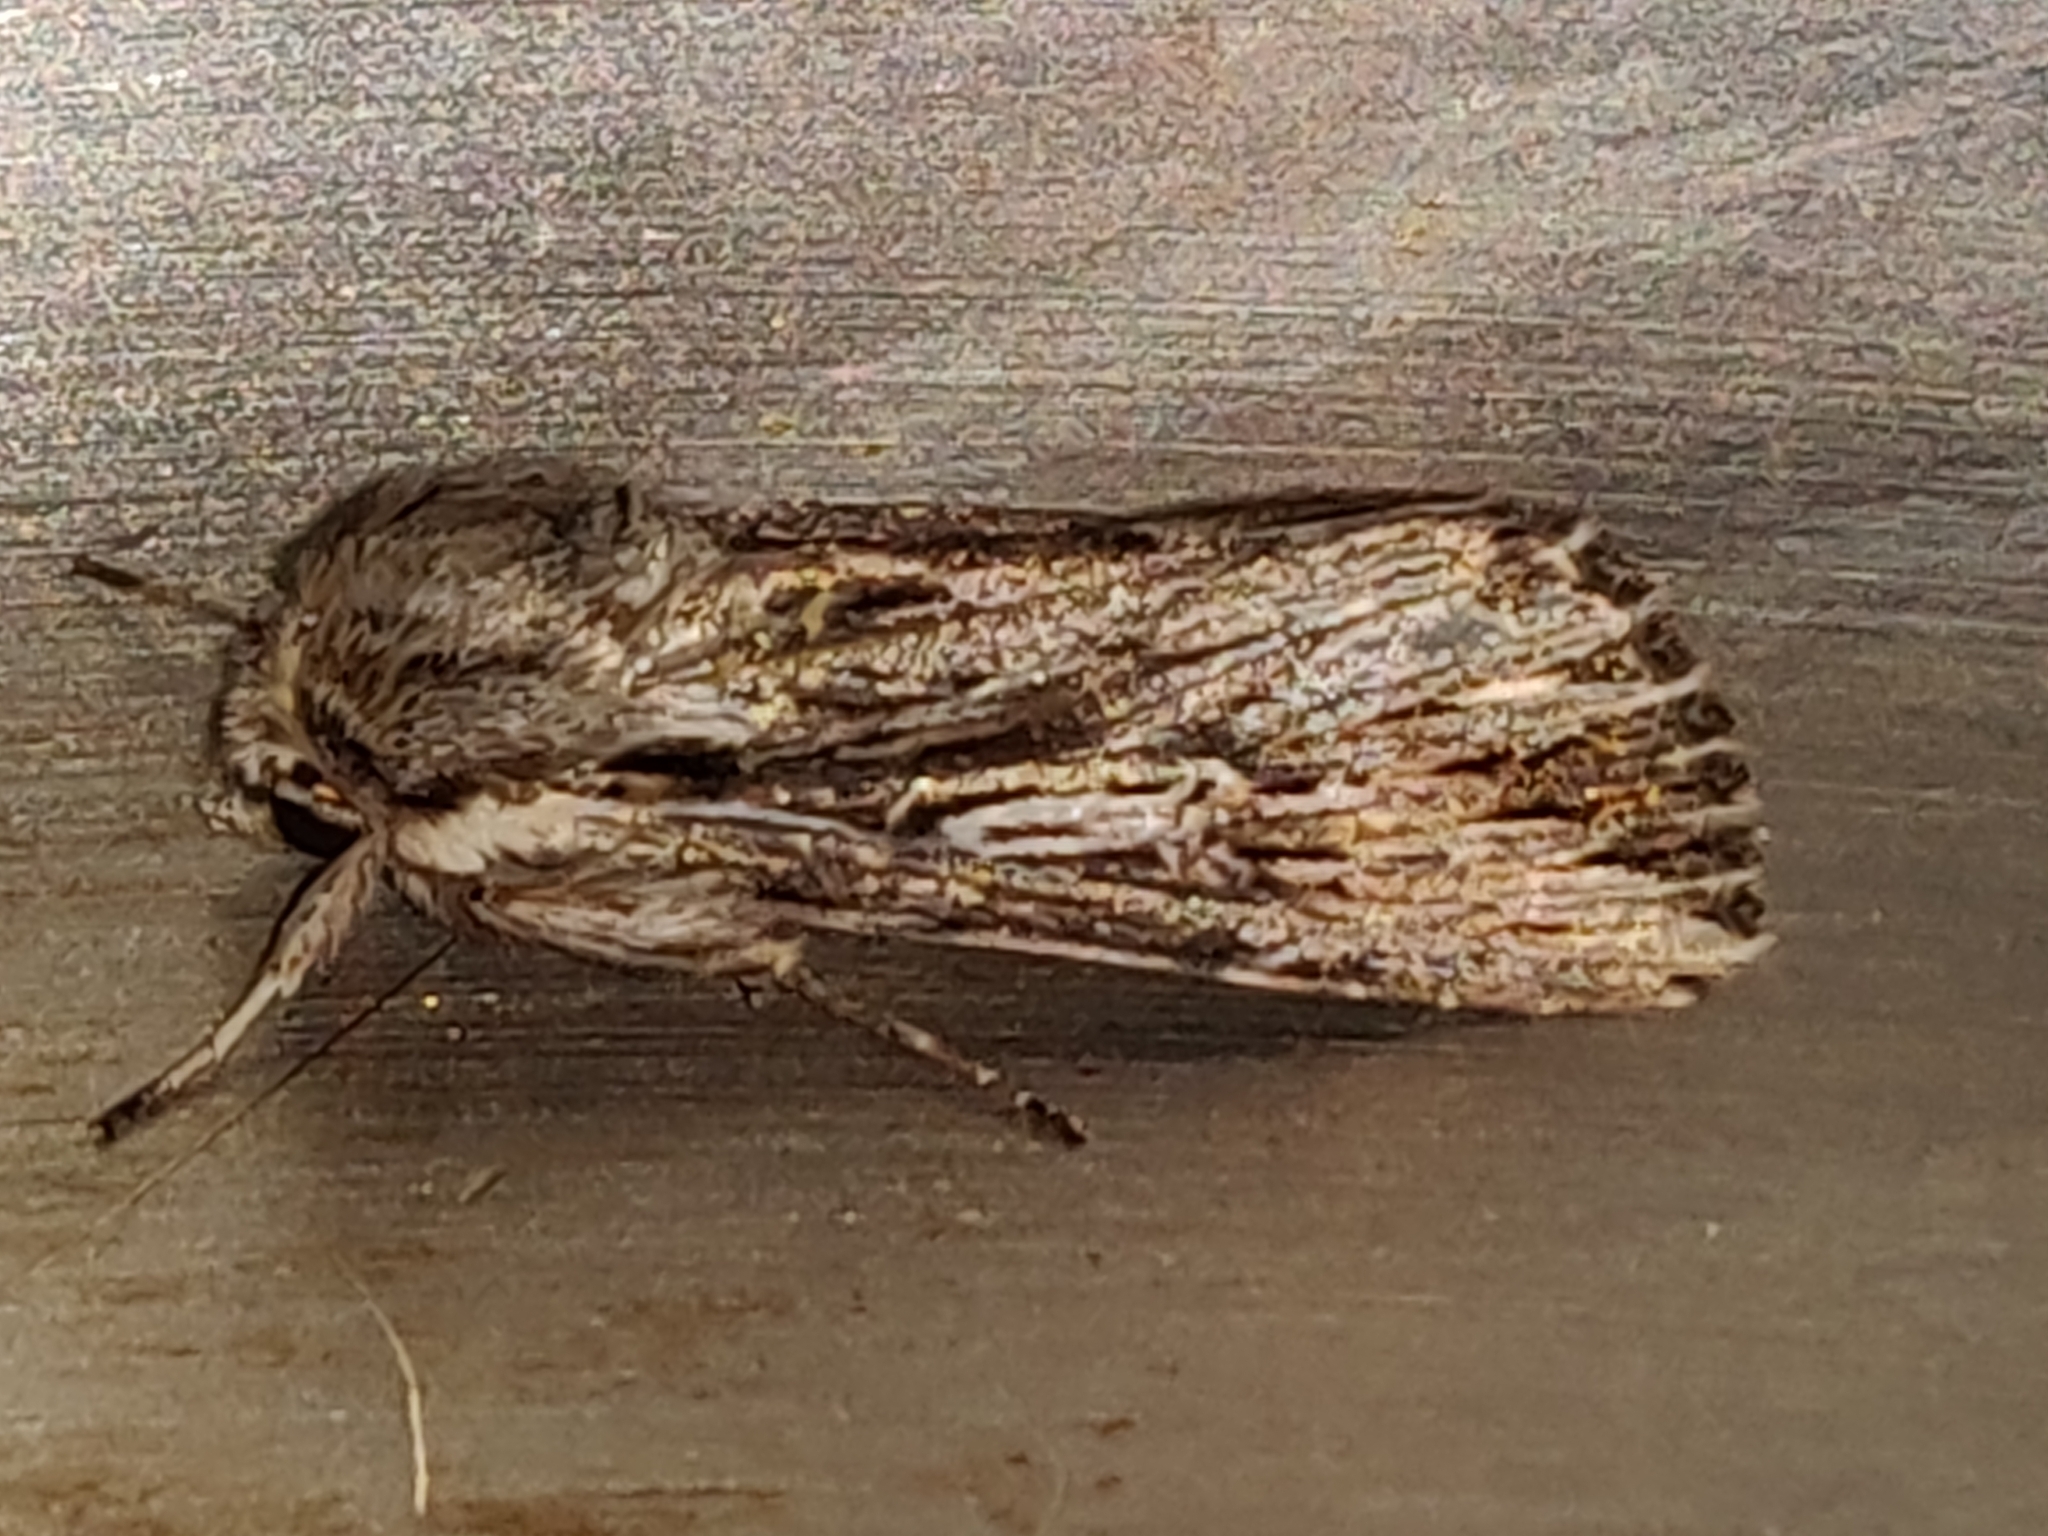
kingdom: Animalia
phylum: Arthropoda
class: Insecta
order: Lepidoptera
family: Noctuidae
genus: Persectania
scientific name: Persectania ewingii
